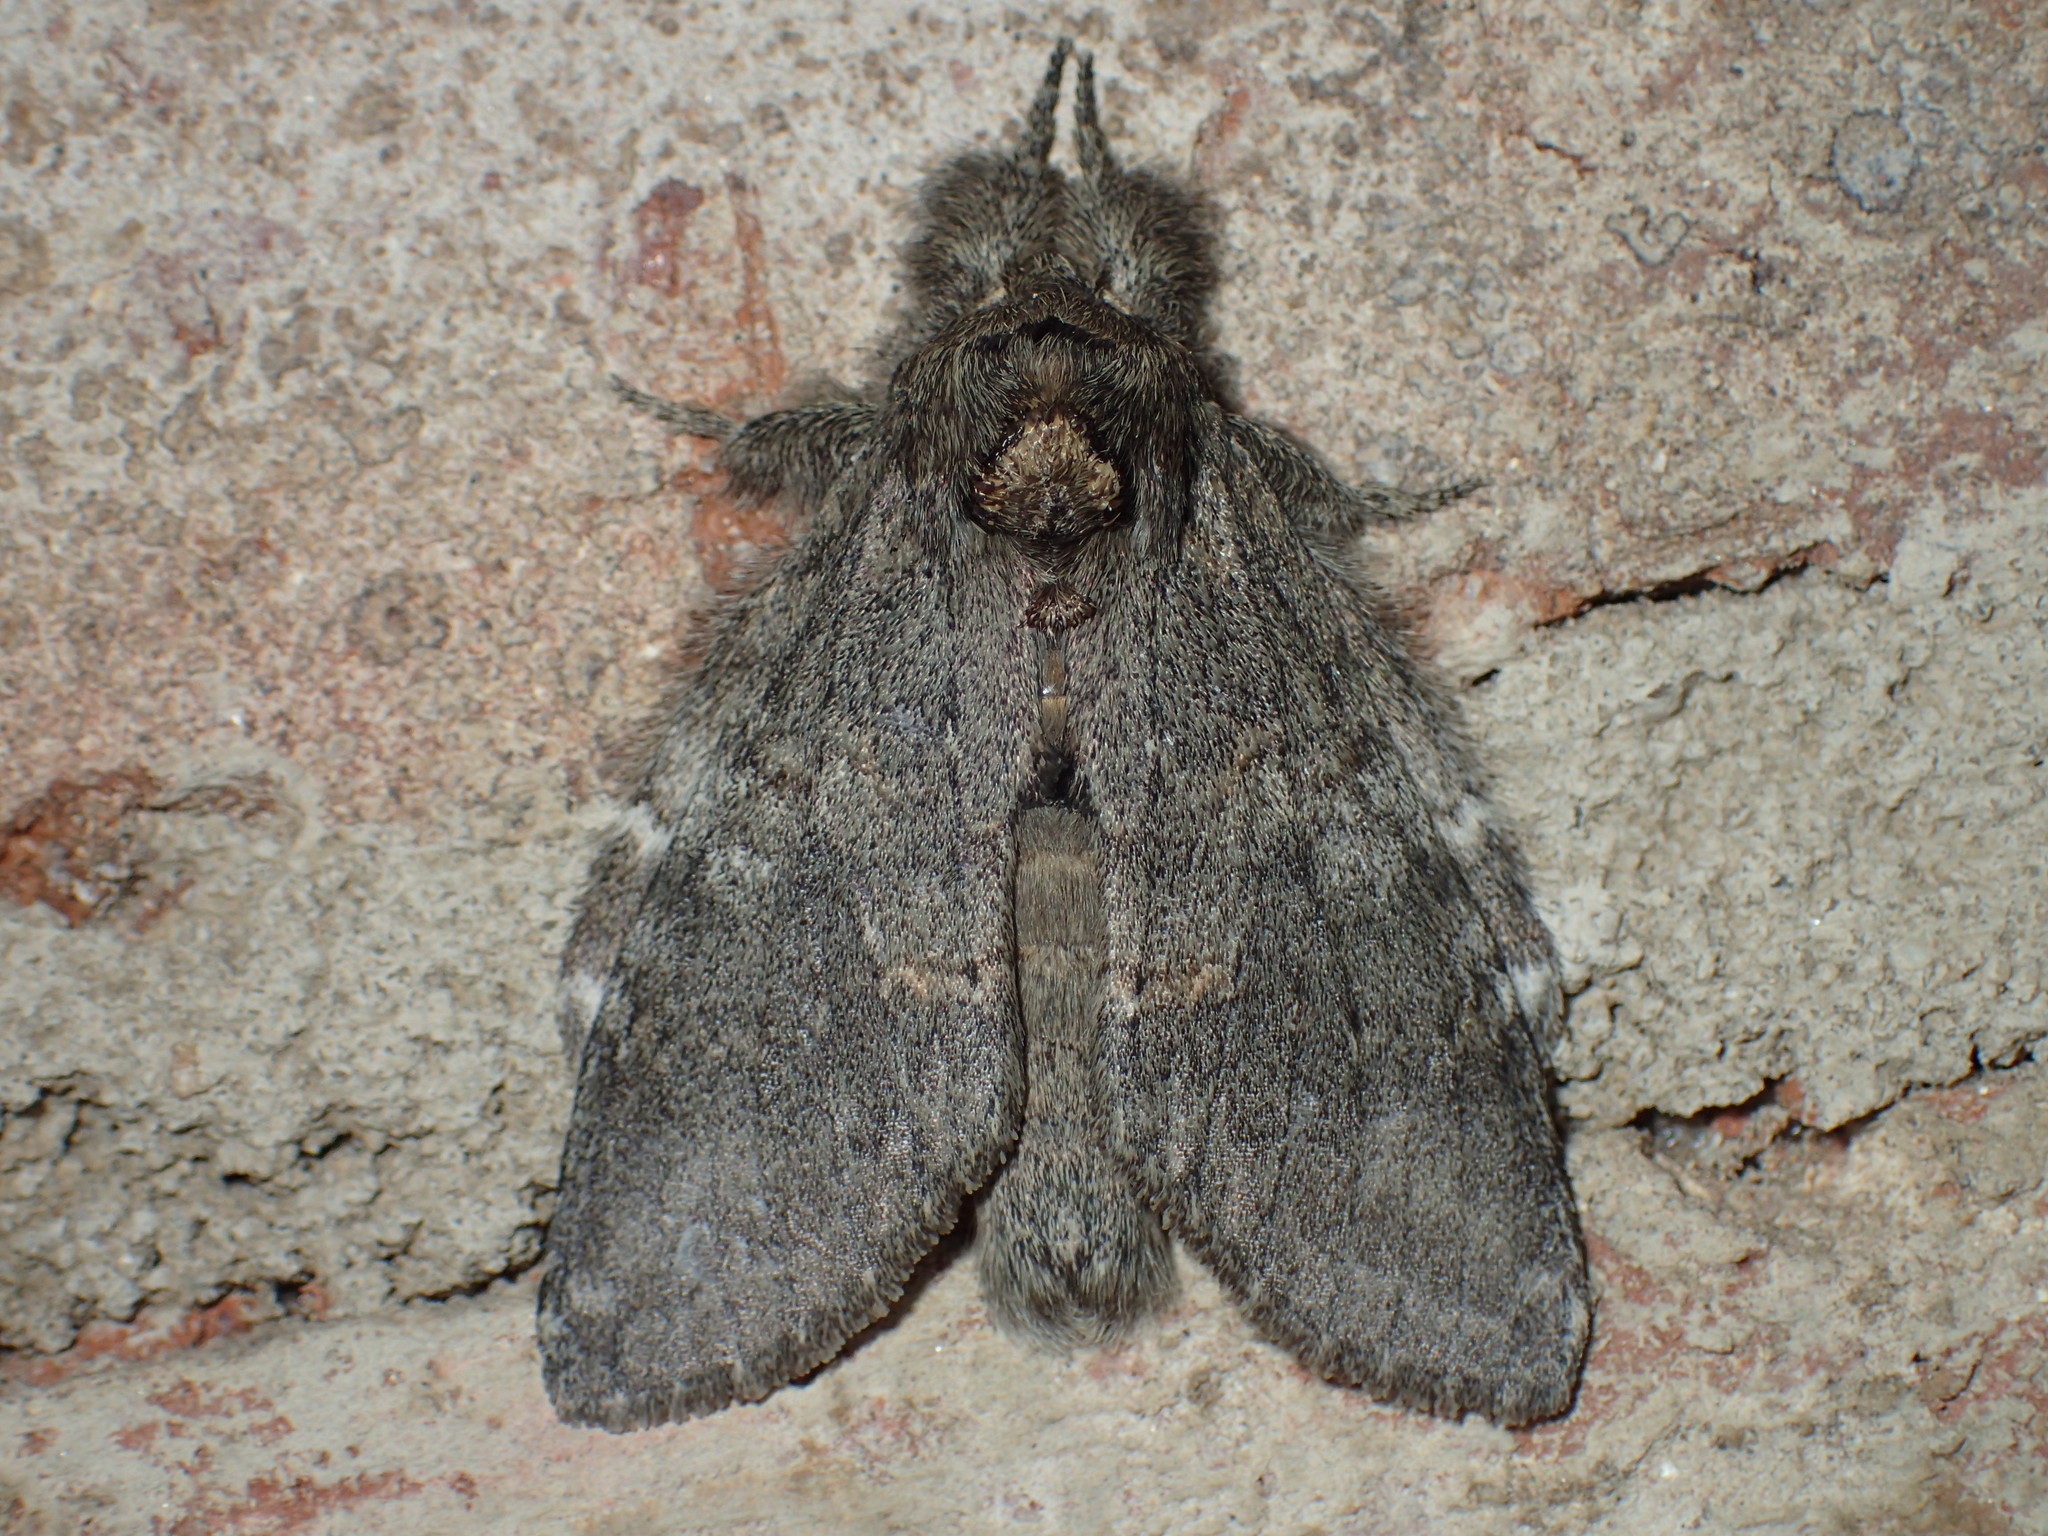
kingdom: Animalia
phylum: Arthropoda
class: Insecta
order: Lepidoptera
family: Notodontidae
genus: Disphragis
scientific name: Disphragis Cecrita biundata
